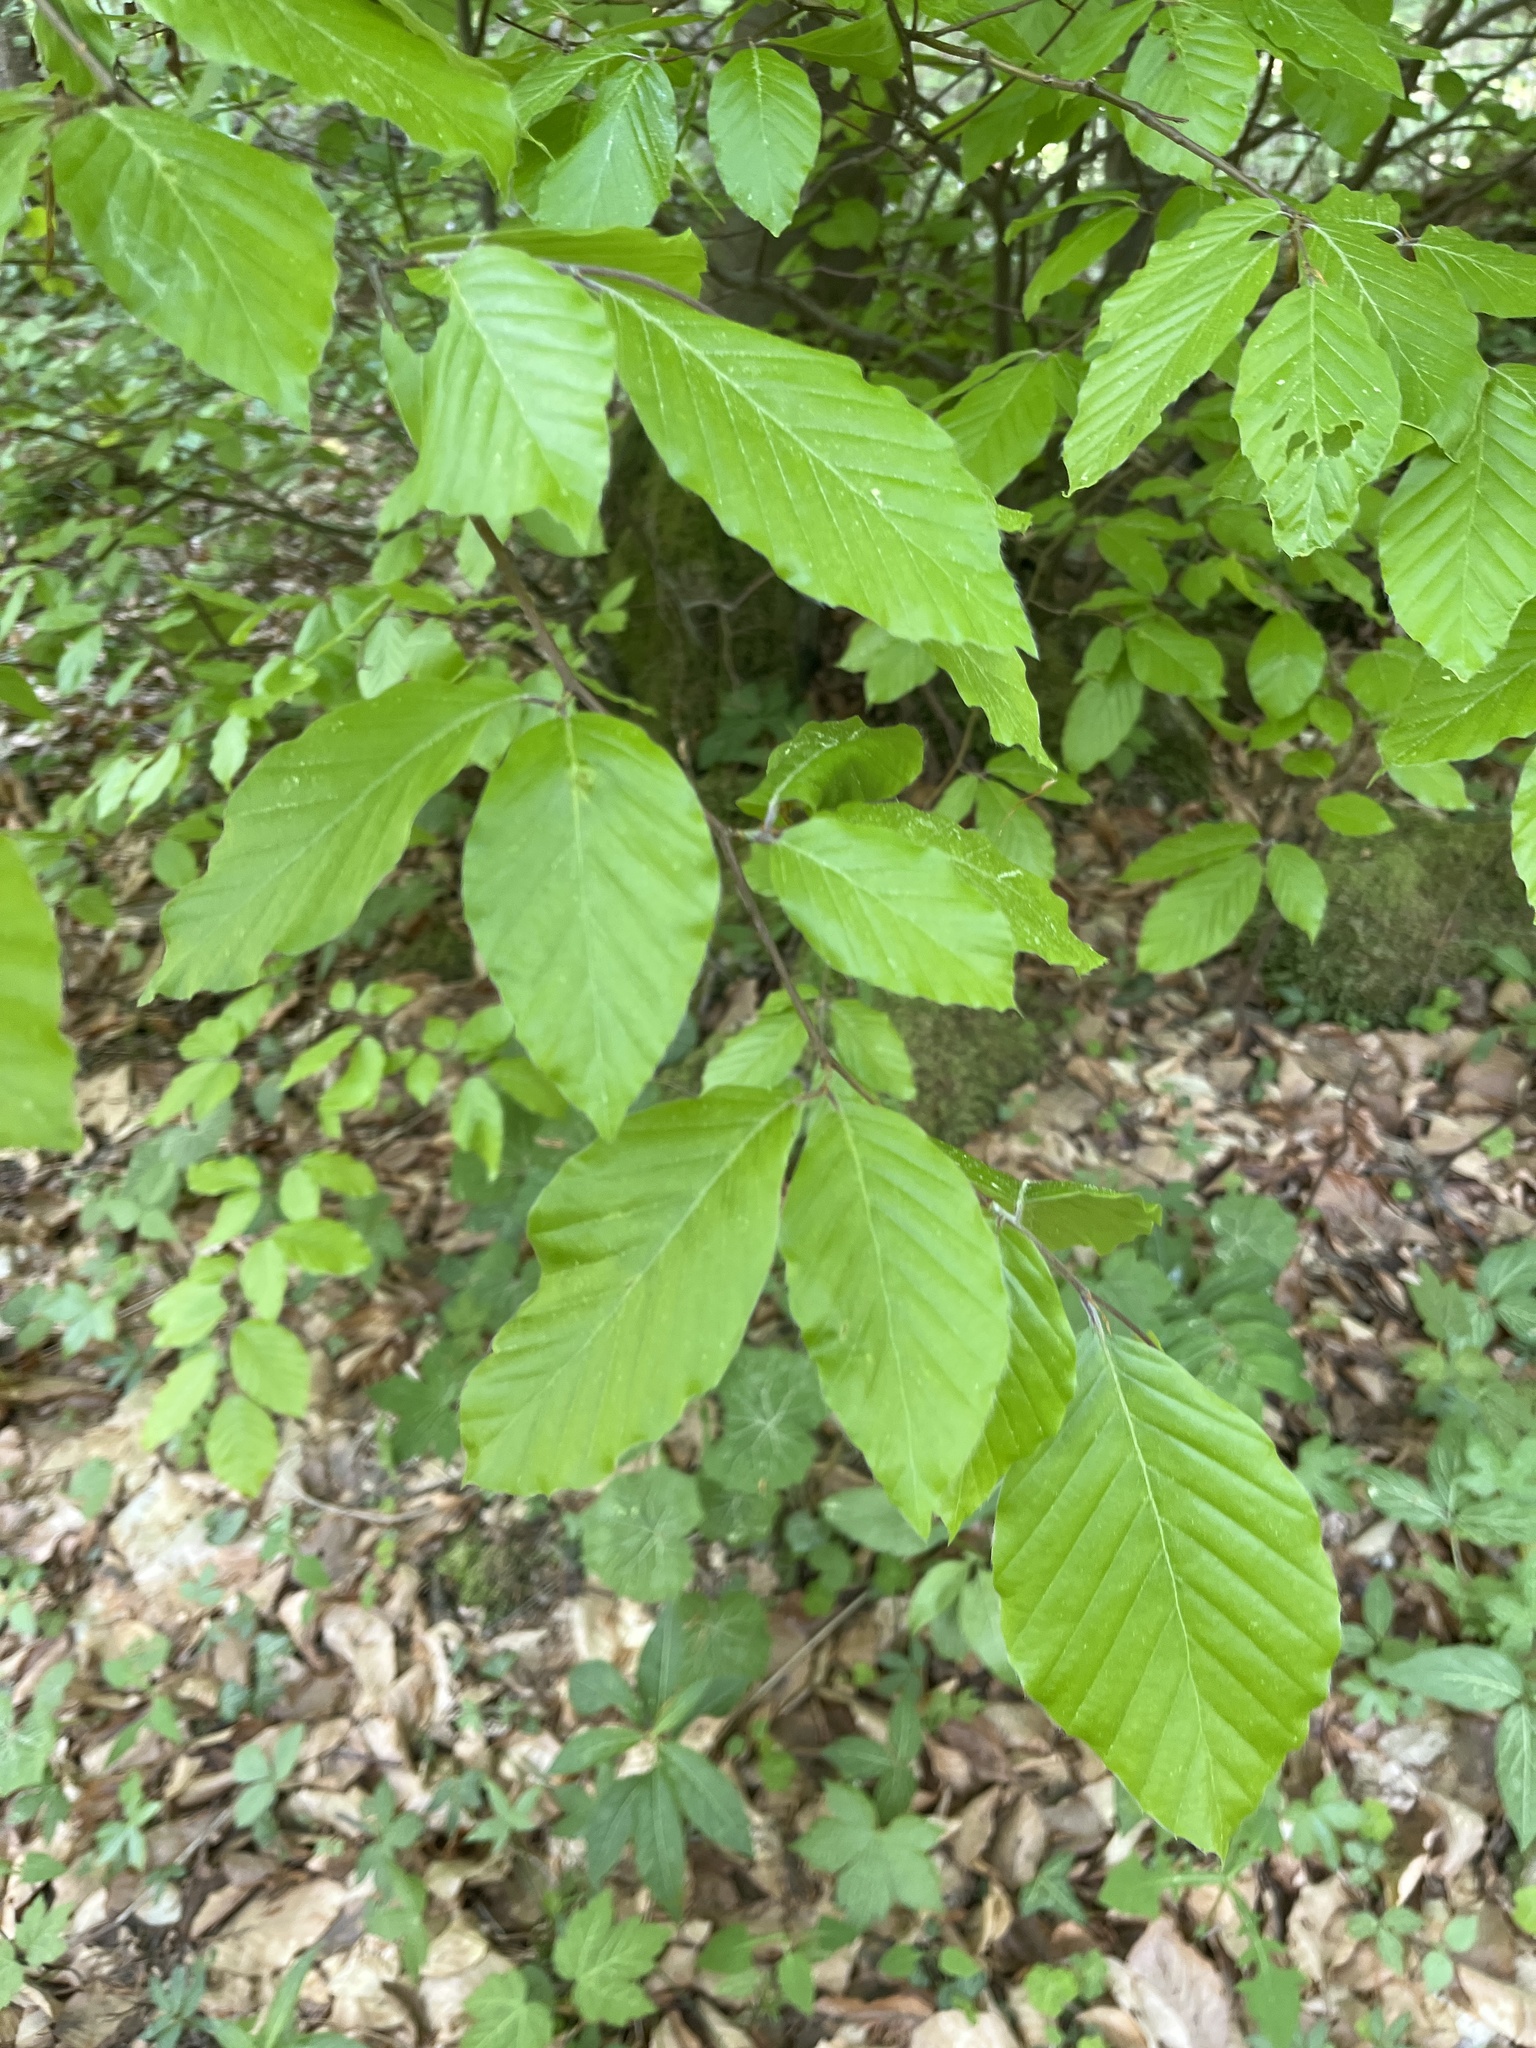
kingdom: Plantae
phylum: Tracheophyta
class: Magnoliopsida
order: Fagales
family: Fagaceae
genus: Fagus
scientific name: Fagus sylvatica
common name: Beech
